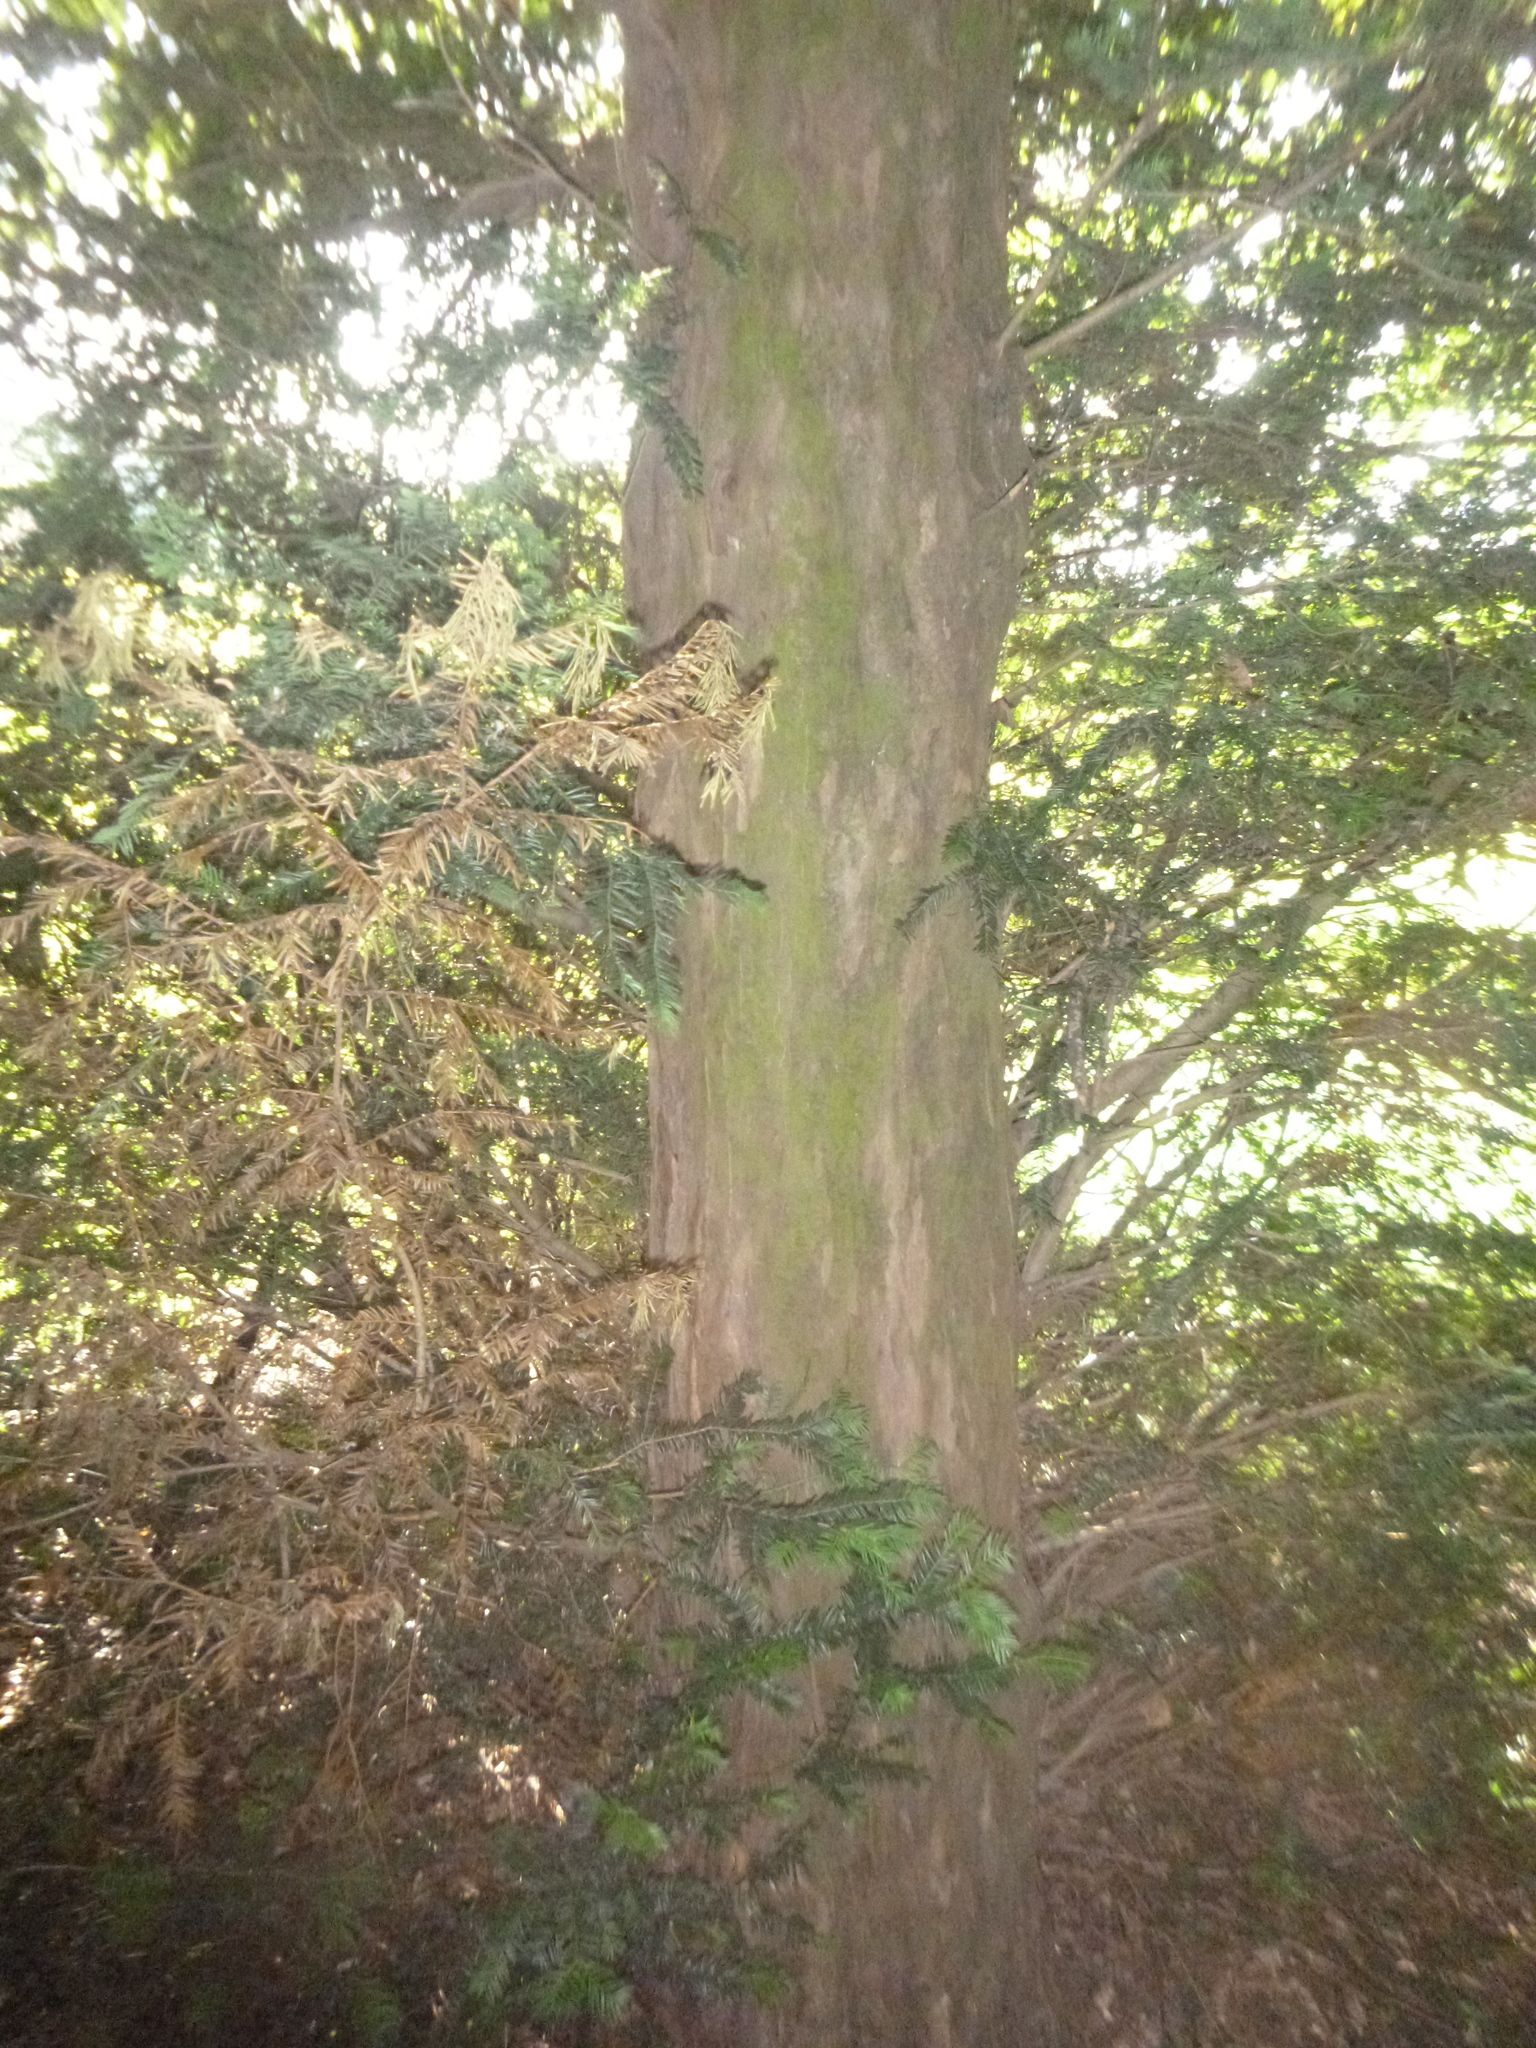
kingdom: Plantae
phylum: Tracheophyta
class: Pinopsida
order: Pinales
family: Taxaceae
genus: Taxus
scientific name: Taxus baccata
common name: Yew
